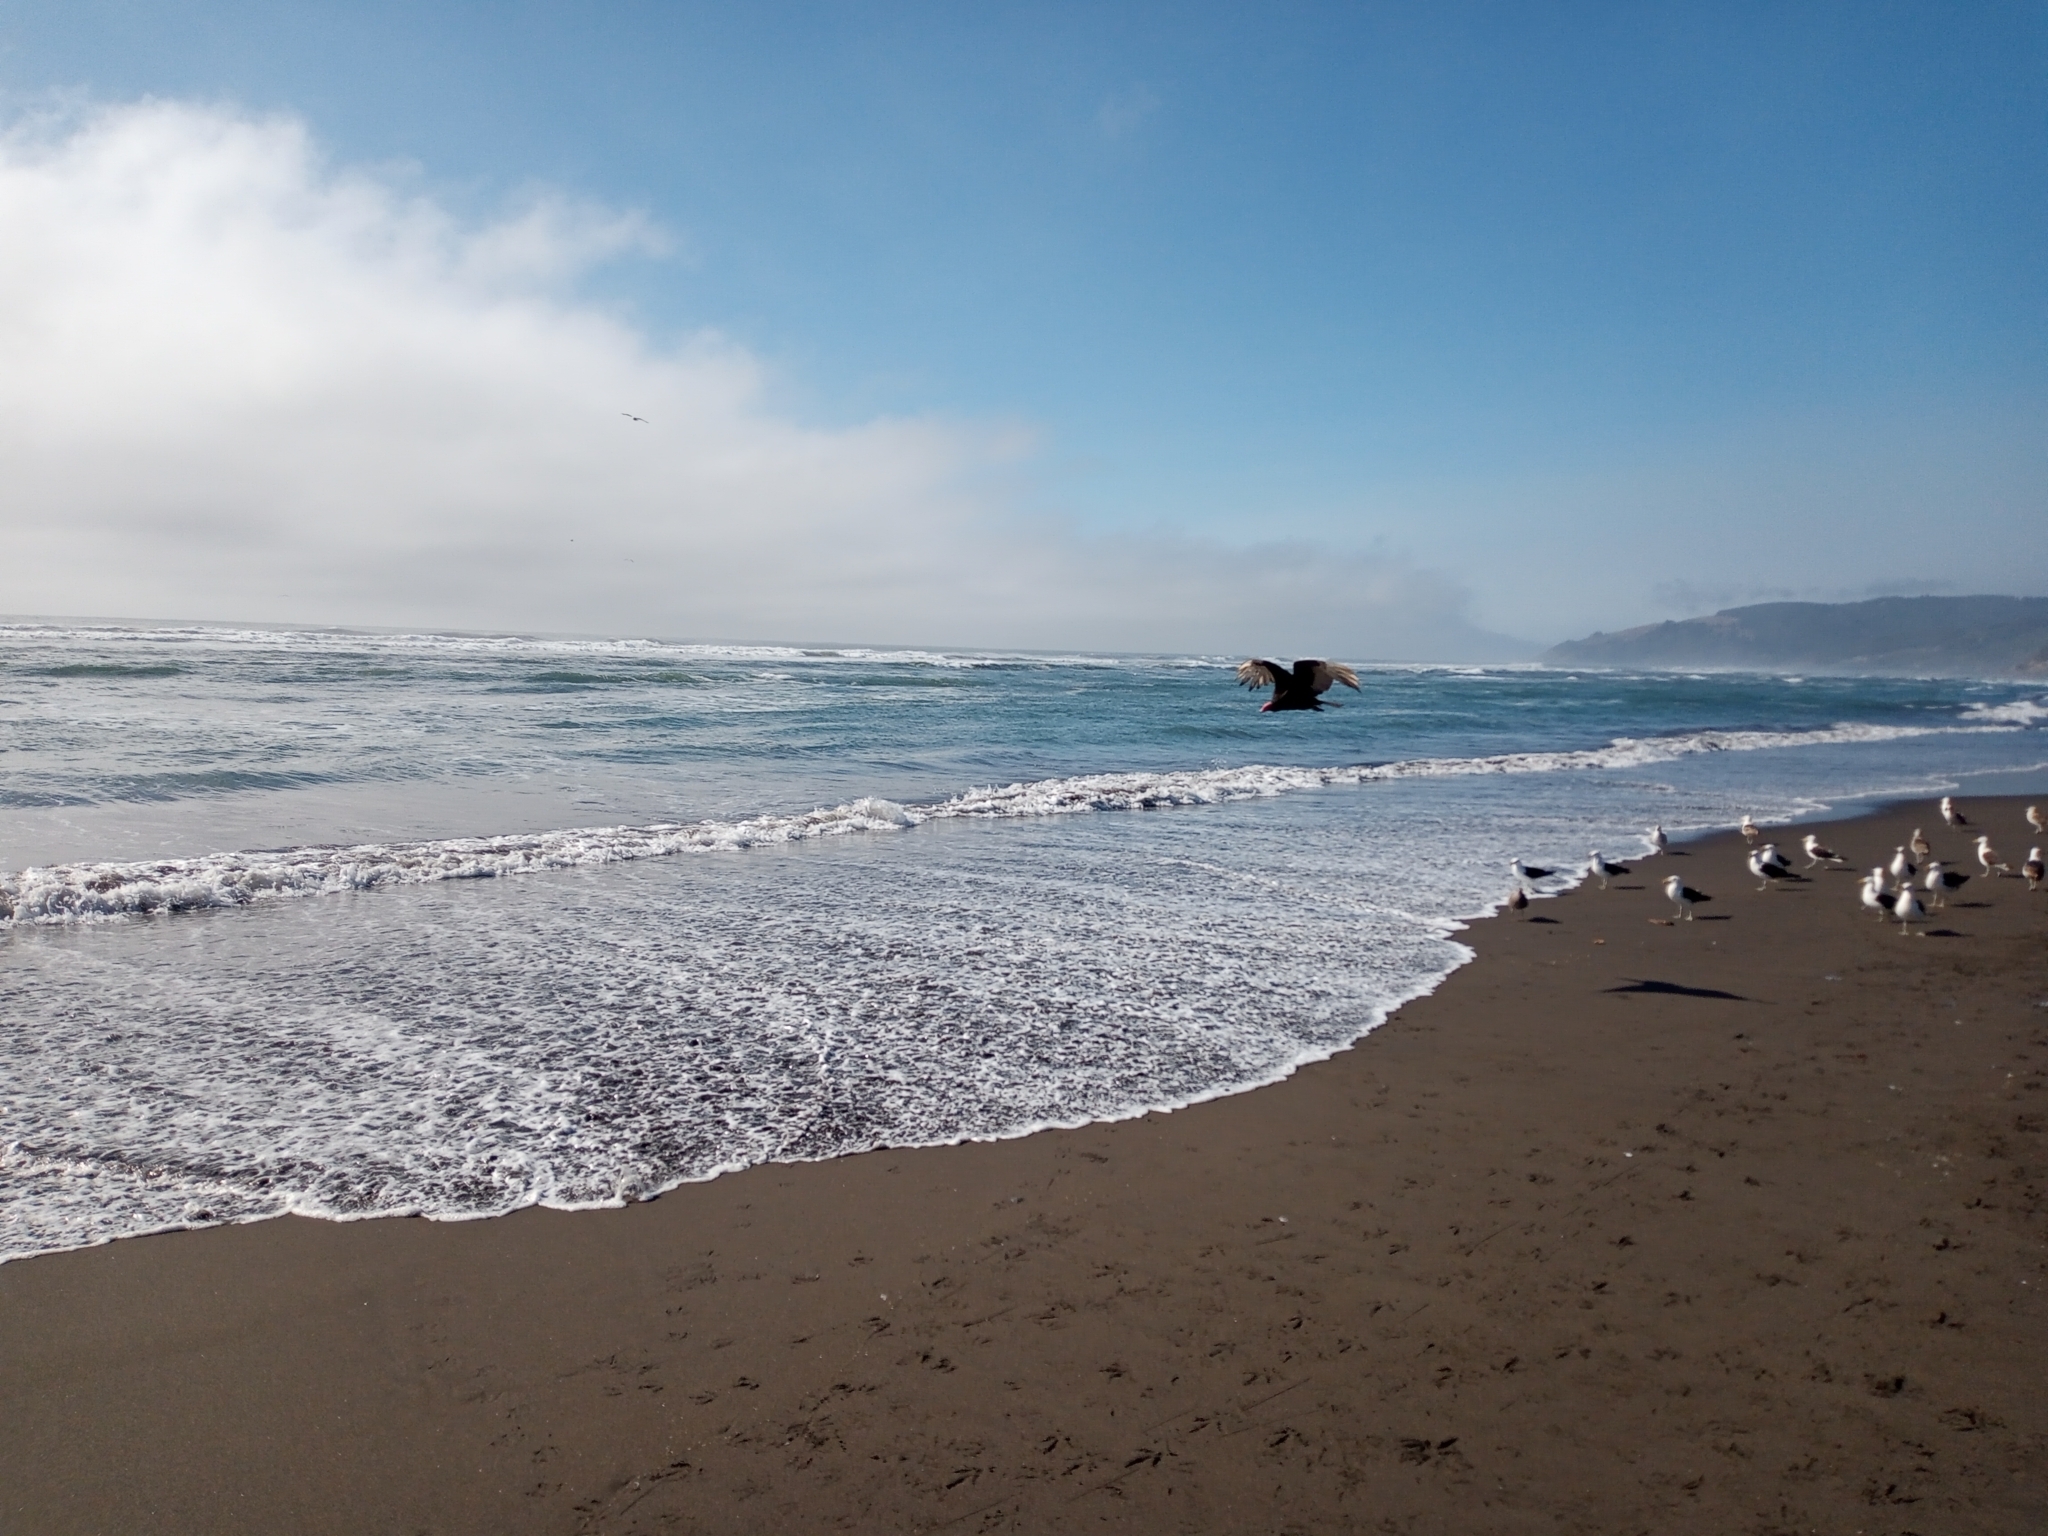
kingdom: Animalia
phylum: Chordata
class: Aves
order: Accipitriformes
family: Cathartidae
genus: Cathartes
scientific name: Cathartes aura
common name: Turkey vulture
